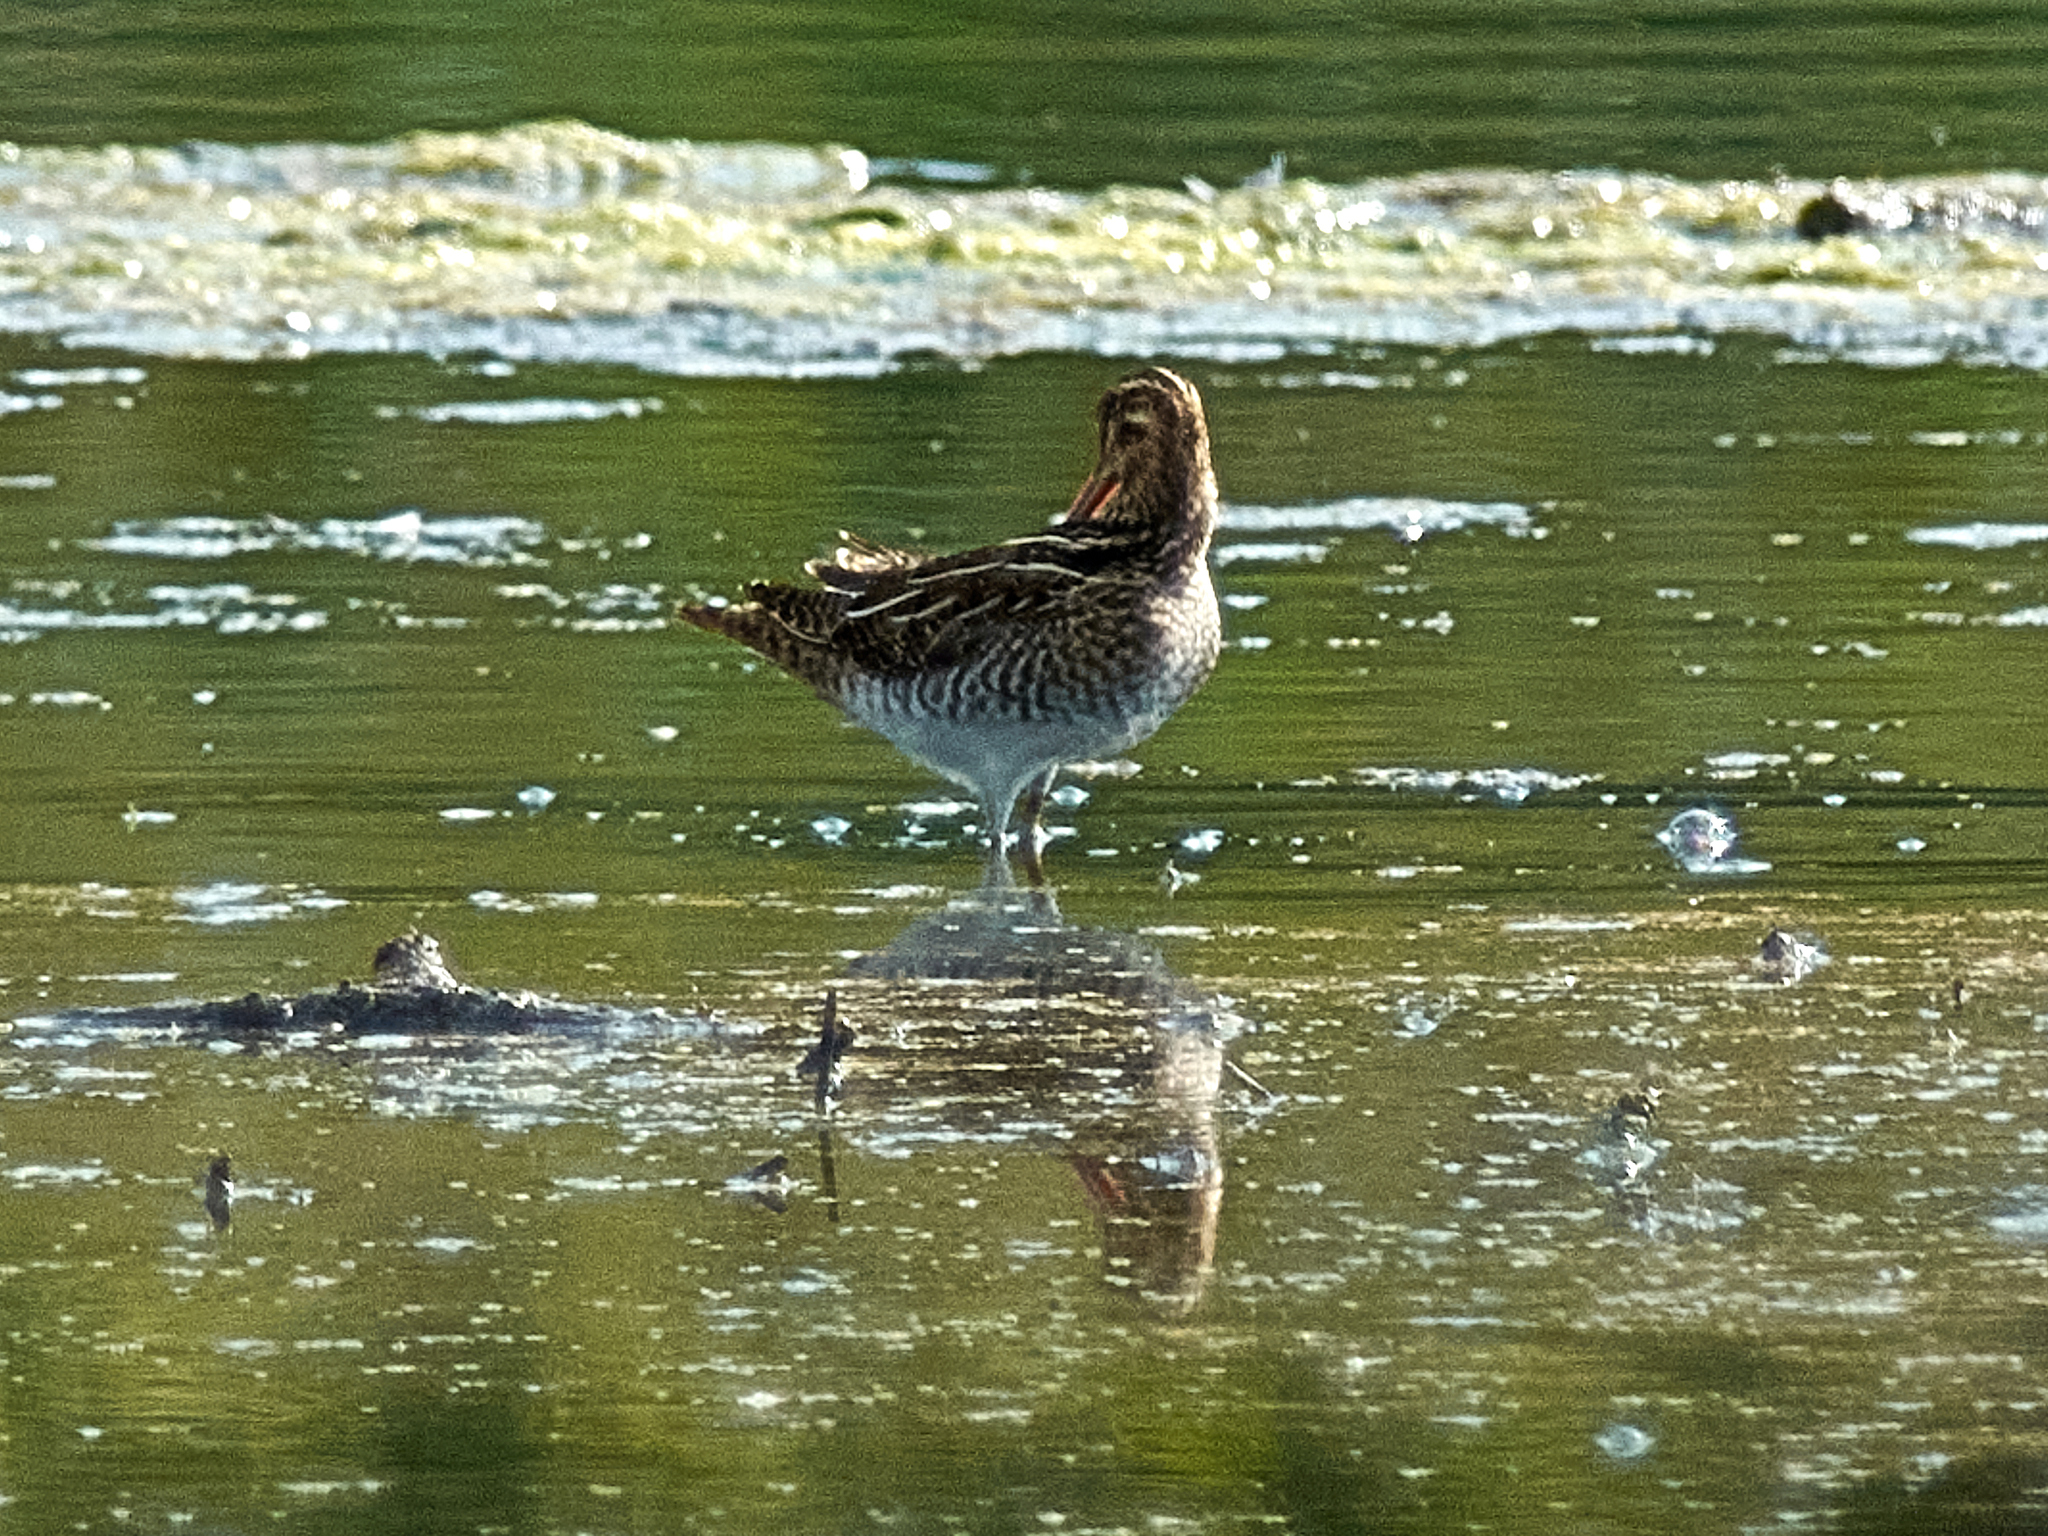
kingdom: Animalia
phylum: Chordata
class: Aves
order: Charadriiformes
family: Scolopacidae
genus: Gallinago
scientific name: Gallinago gallinago
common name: Common snipe
